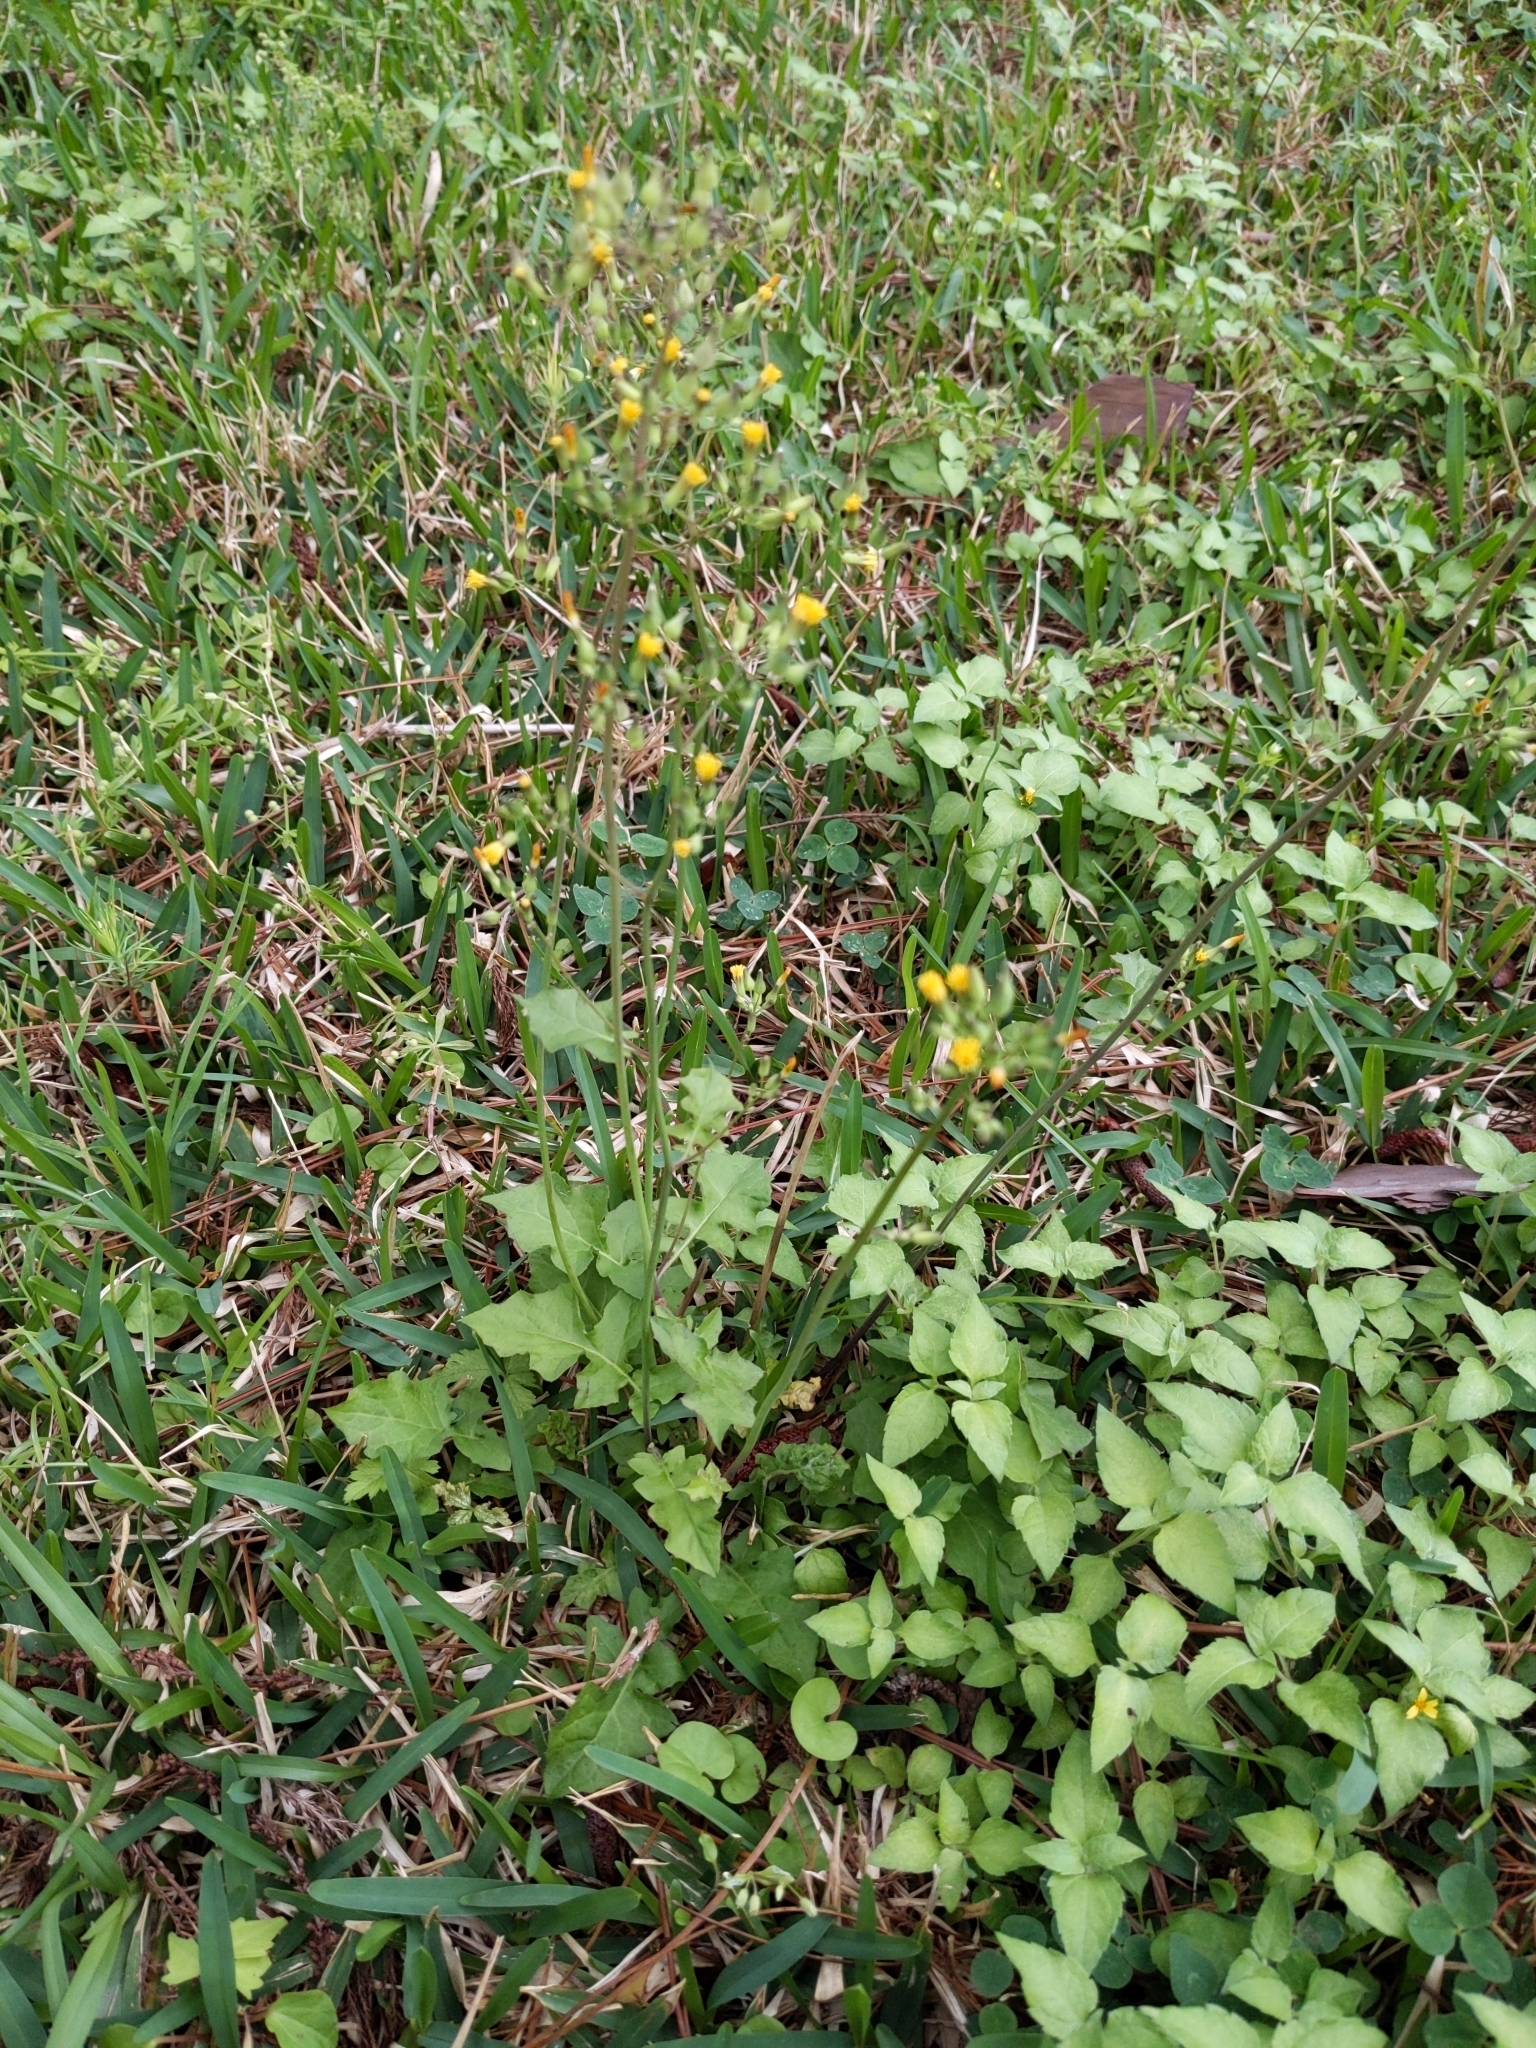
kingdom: Plantae
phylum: Tracheophyta
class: Magnoliopsida
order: Asterales
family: Asteraceae
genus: Youngia
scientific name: Youngia japonica
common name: Oriental false hawksbeard
